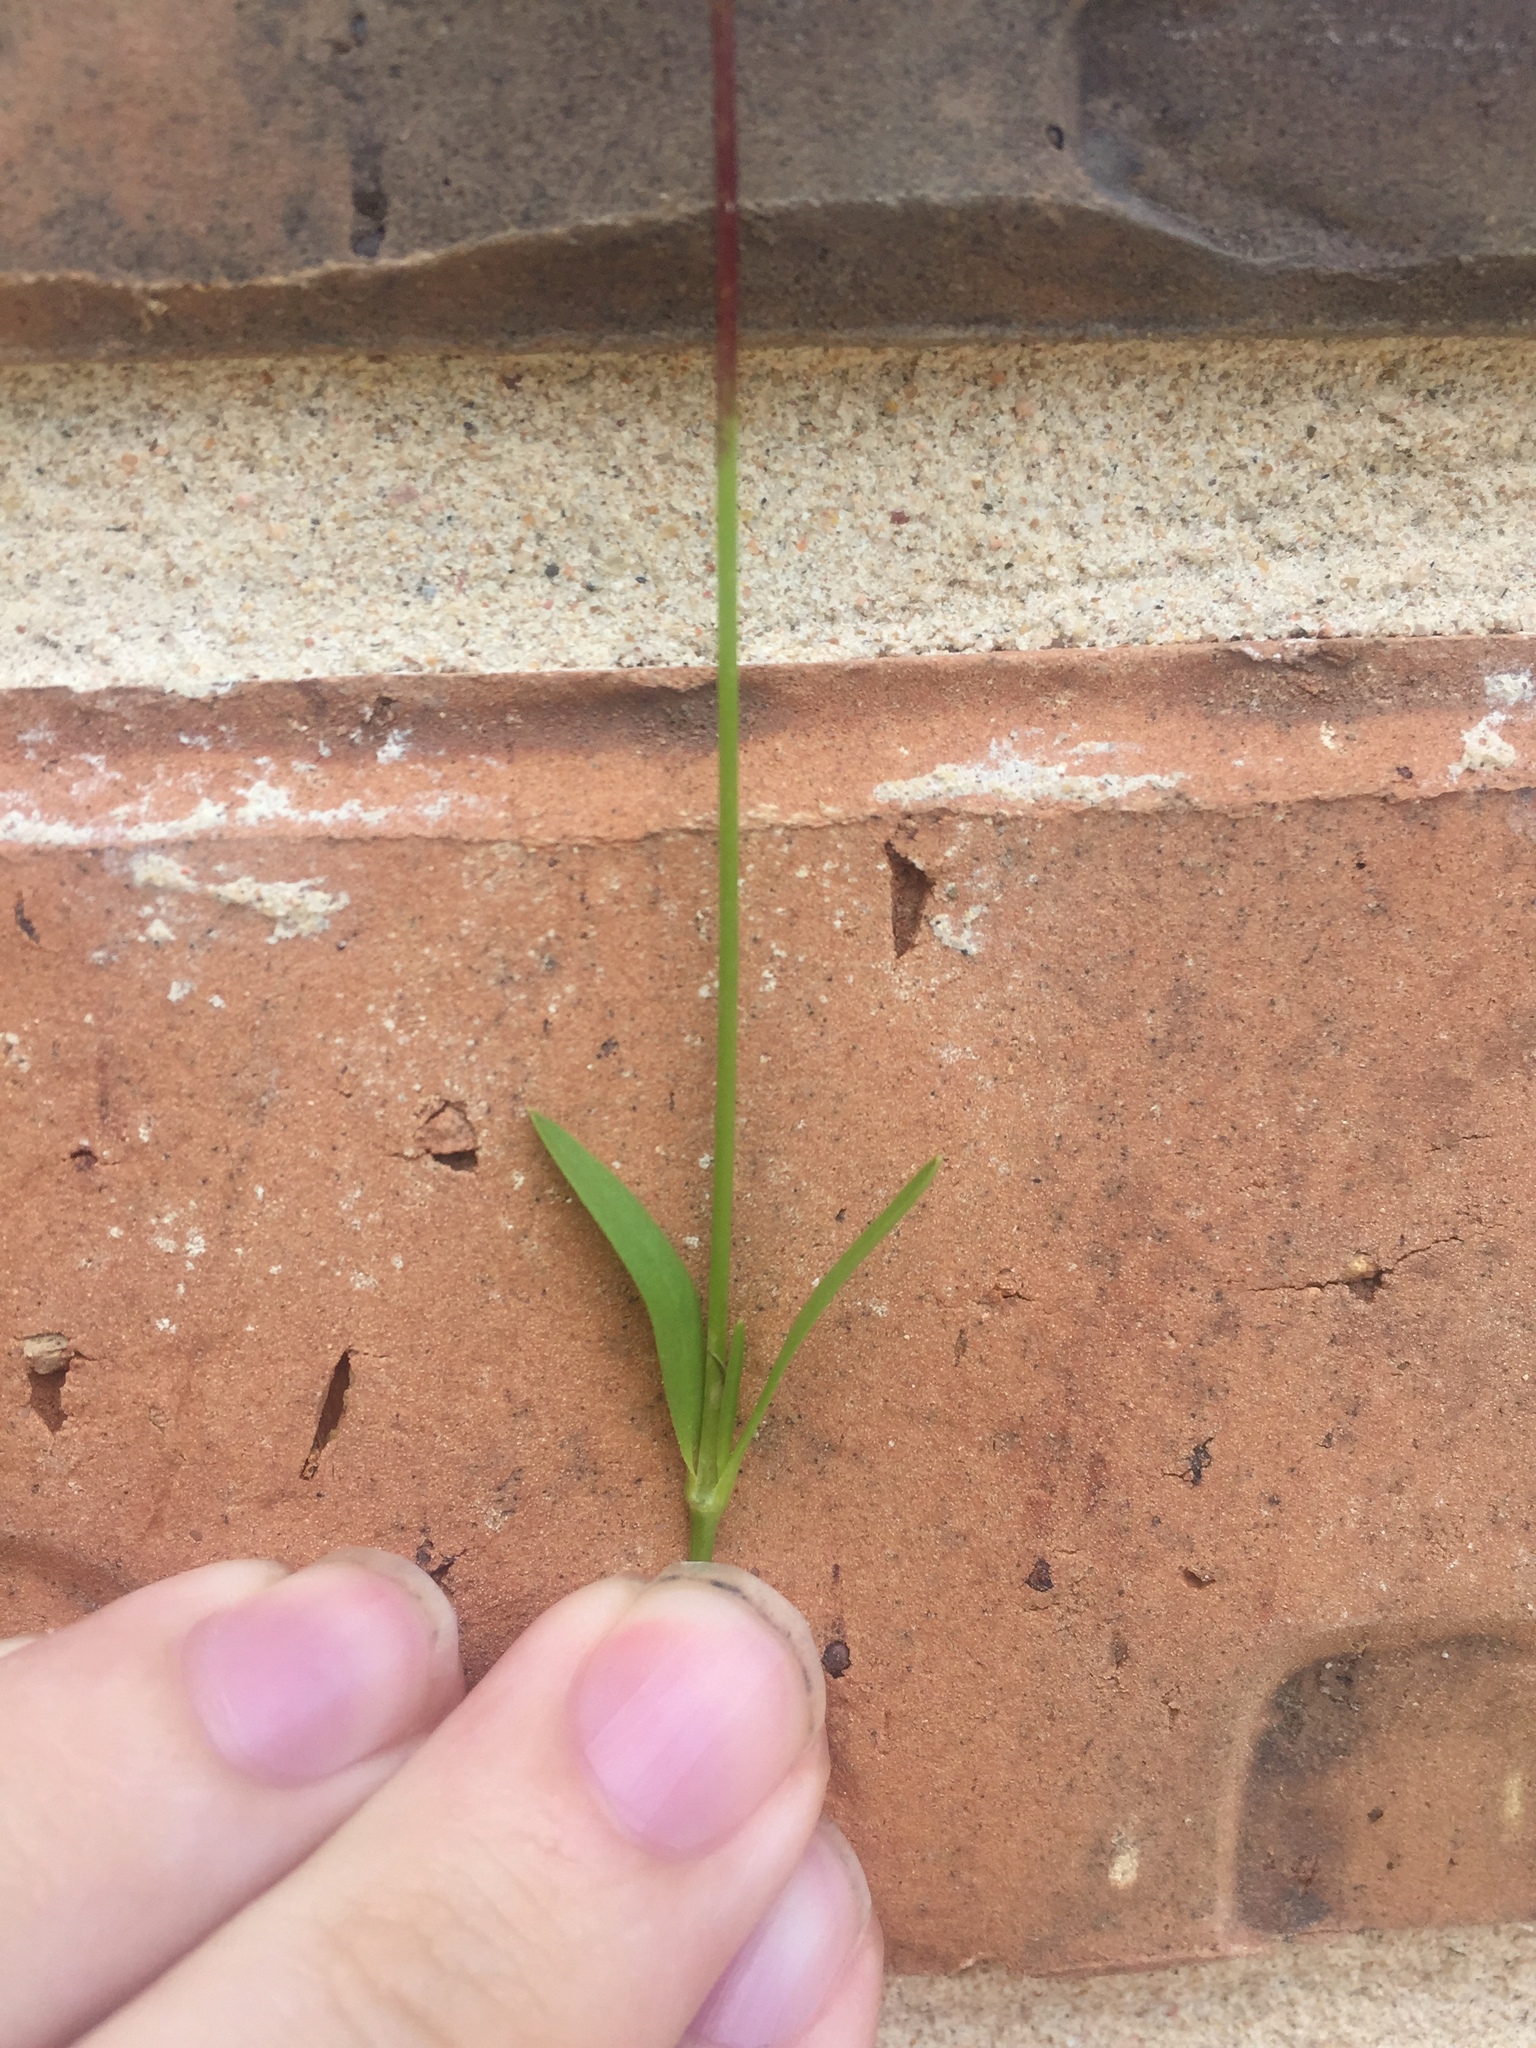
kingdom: Plantae
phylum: Tracheophyta
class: Magnoliopsida
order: Caryophyllales
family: Caryophyllaceae
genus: Silene
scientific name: Silene antirrhina
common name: Sleepy catchfly
